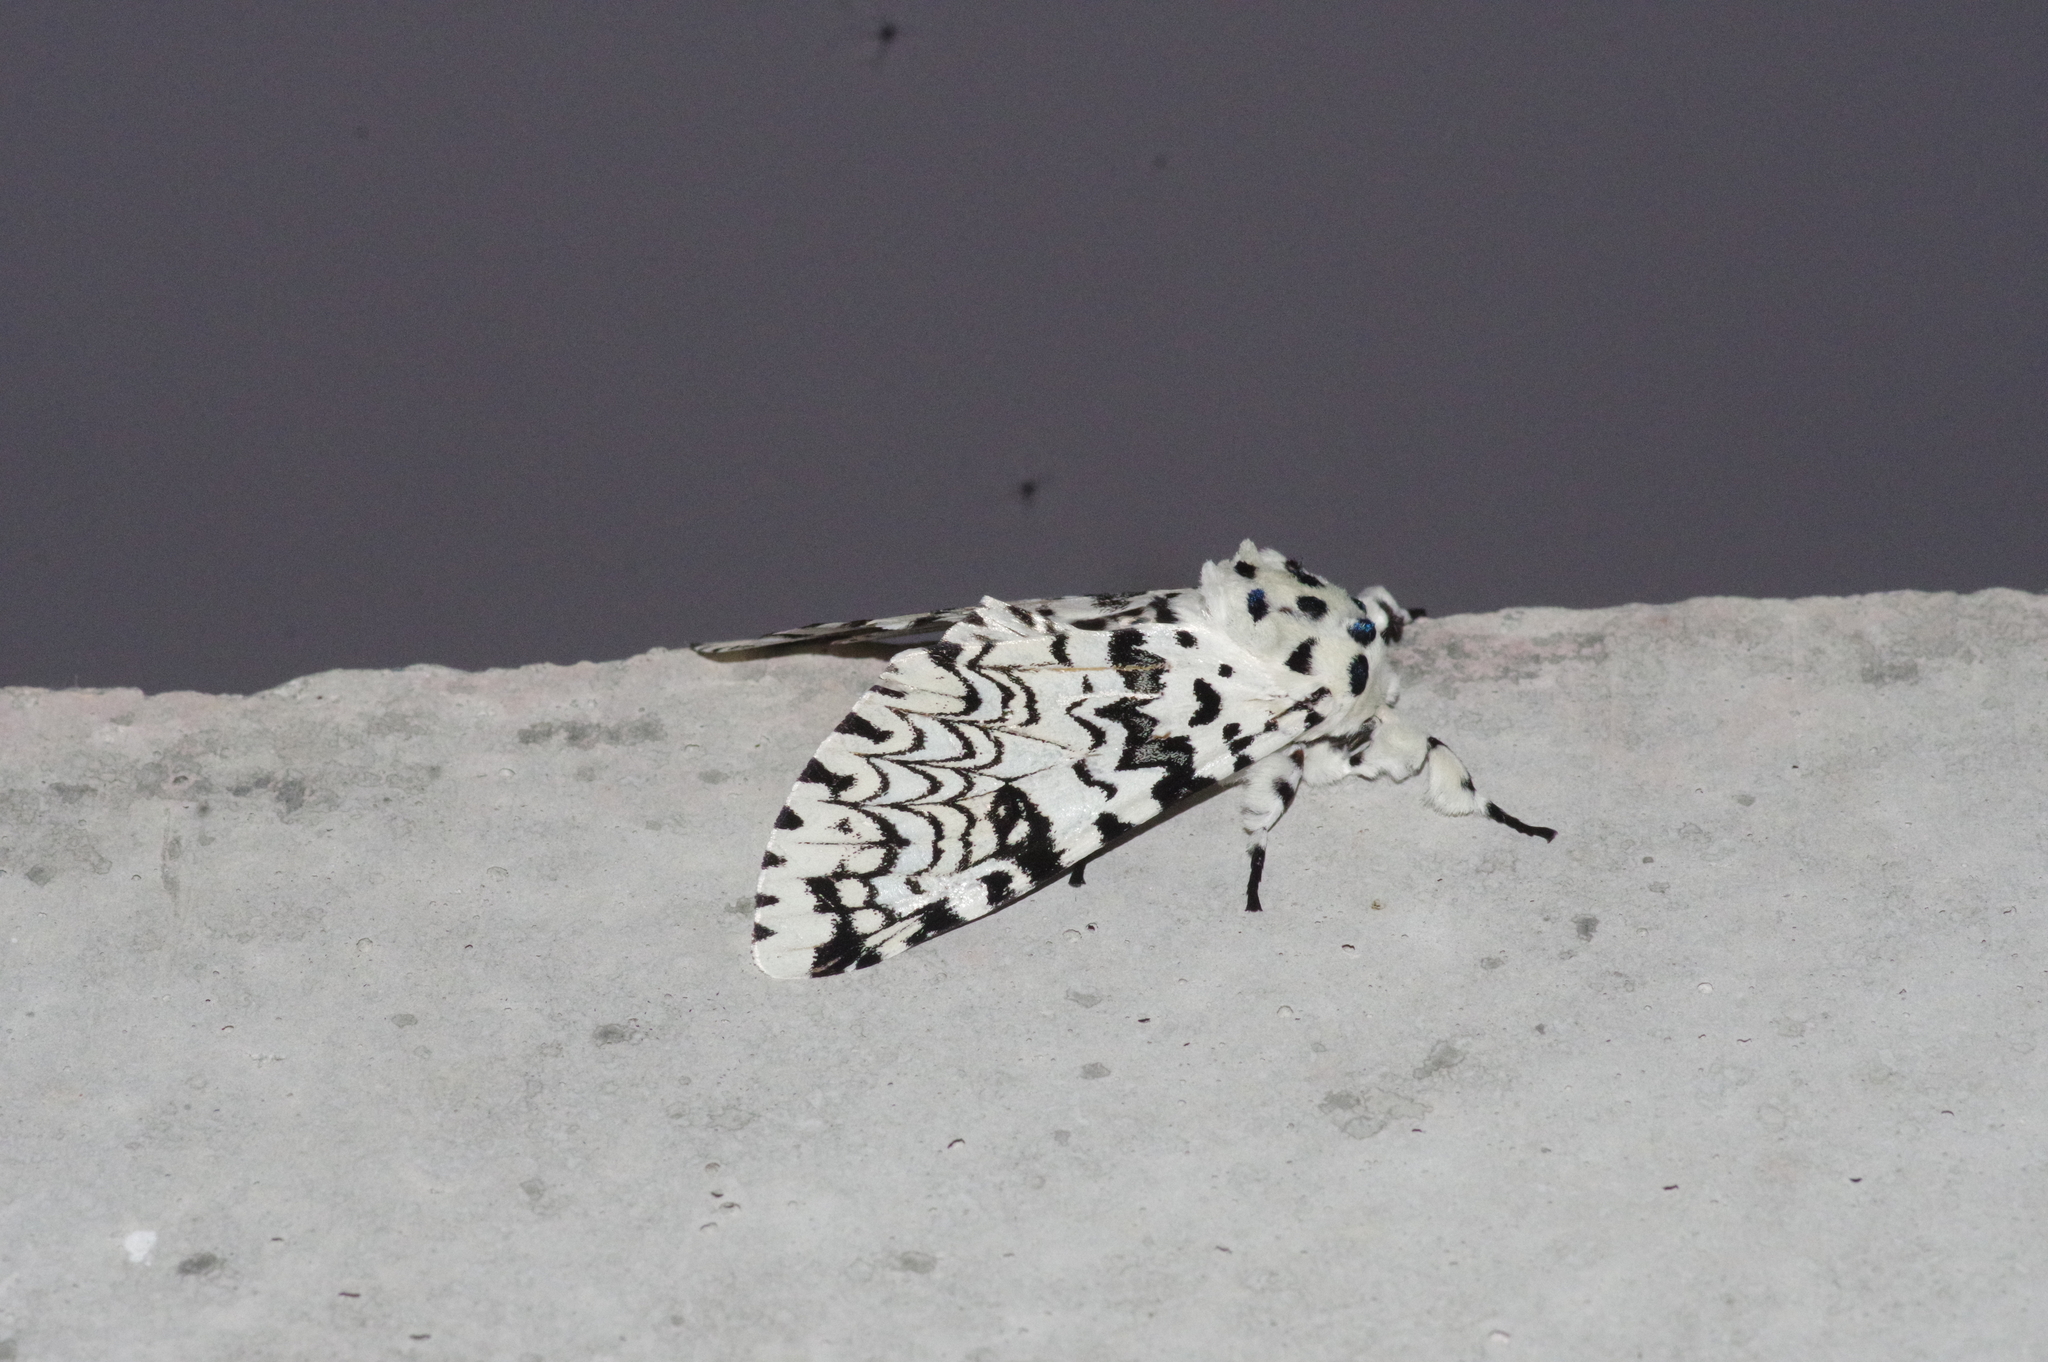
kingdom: Animalia
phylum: Arthropoda
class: Insecta
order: Lepidoptera
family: Notodontidae
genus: Kamalia
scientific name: Kamalia tattakana
